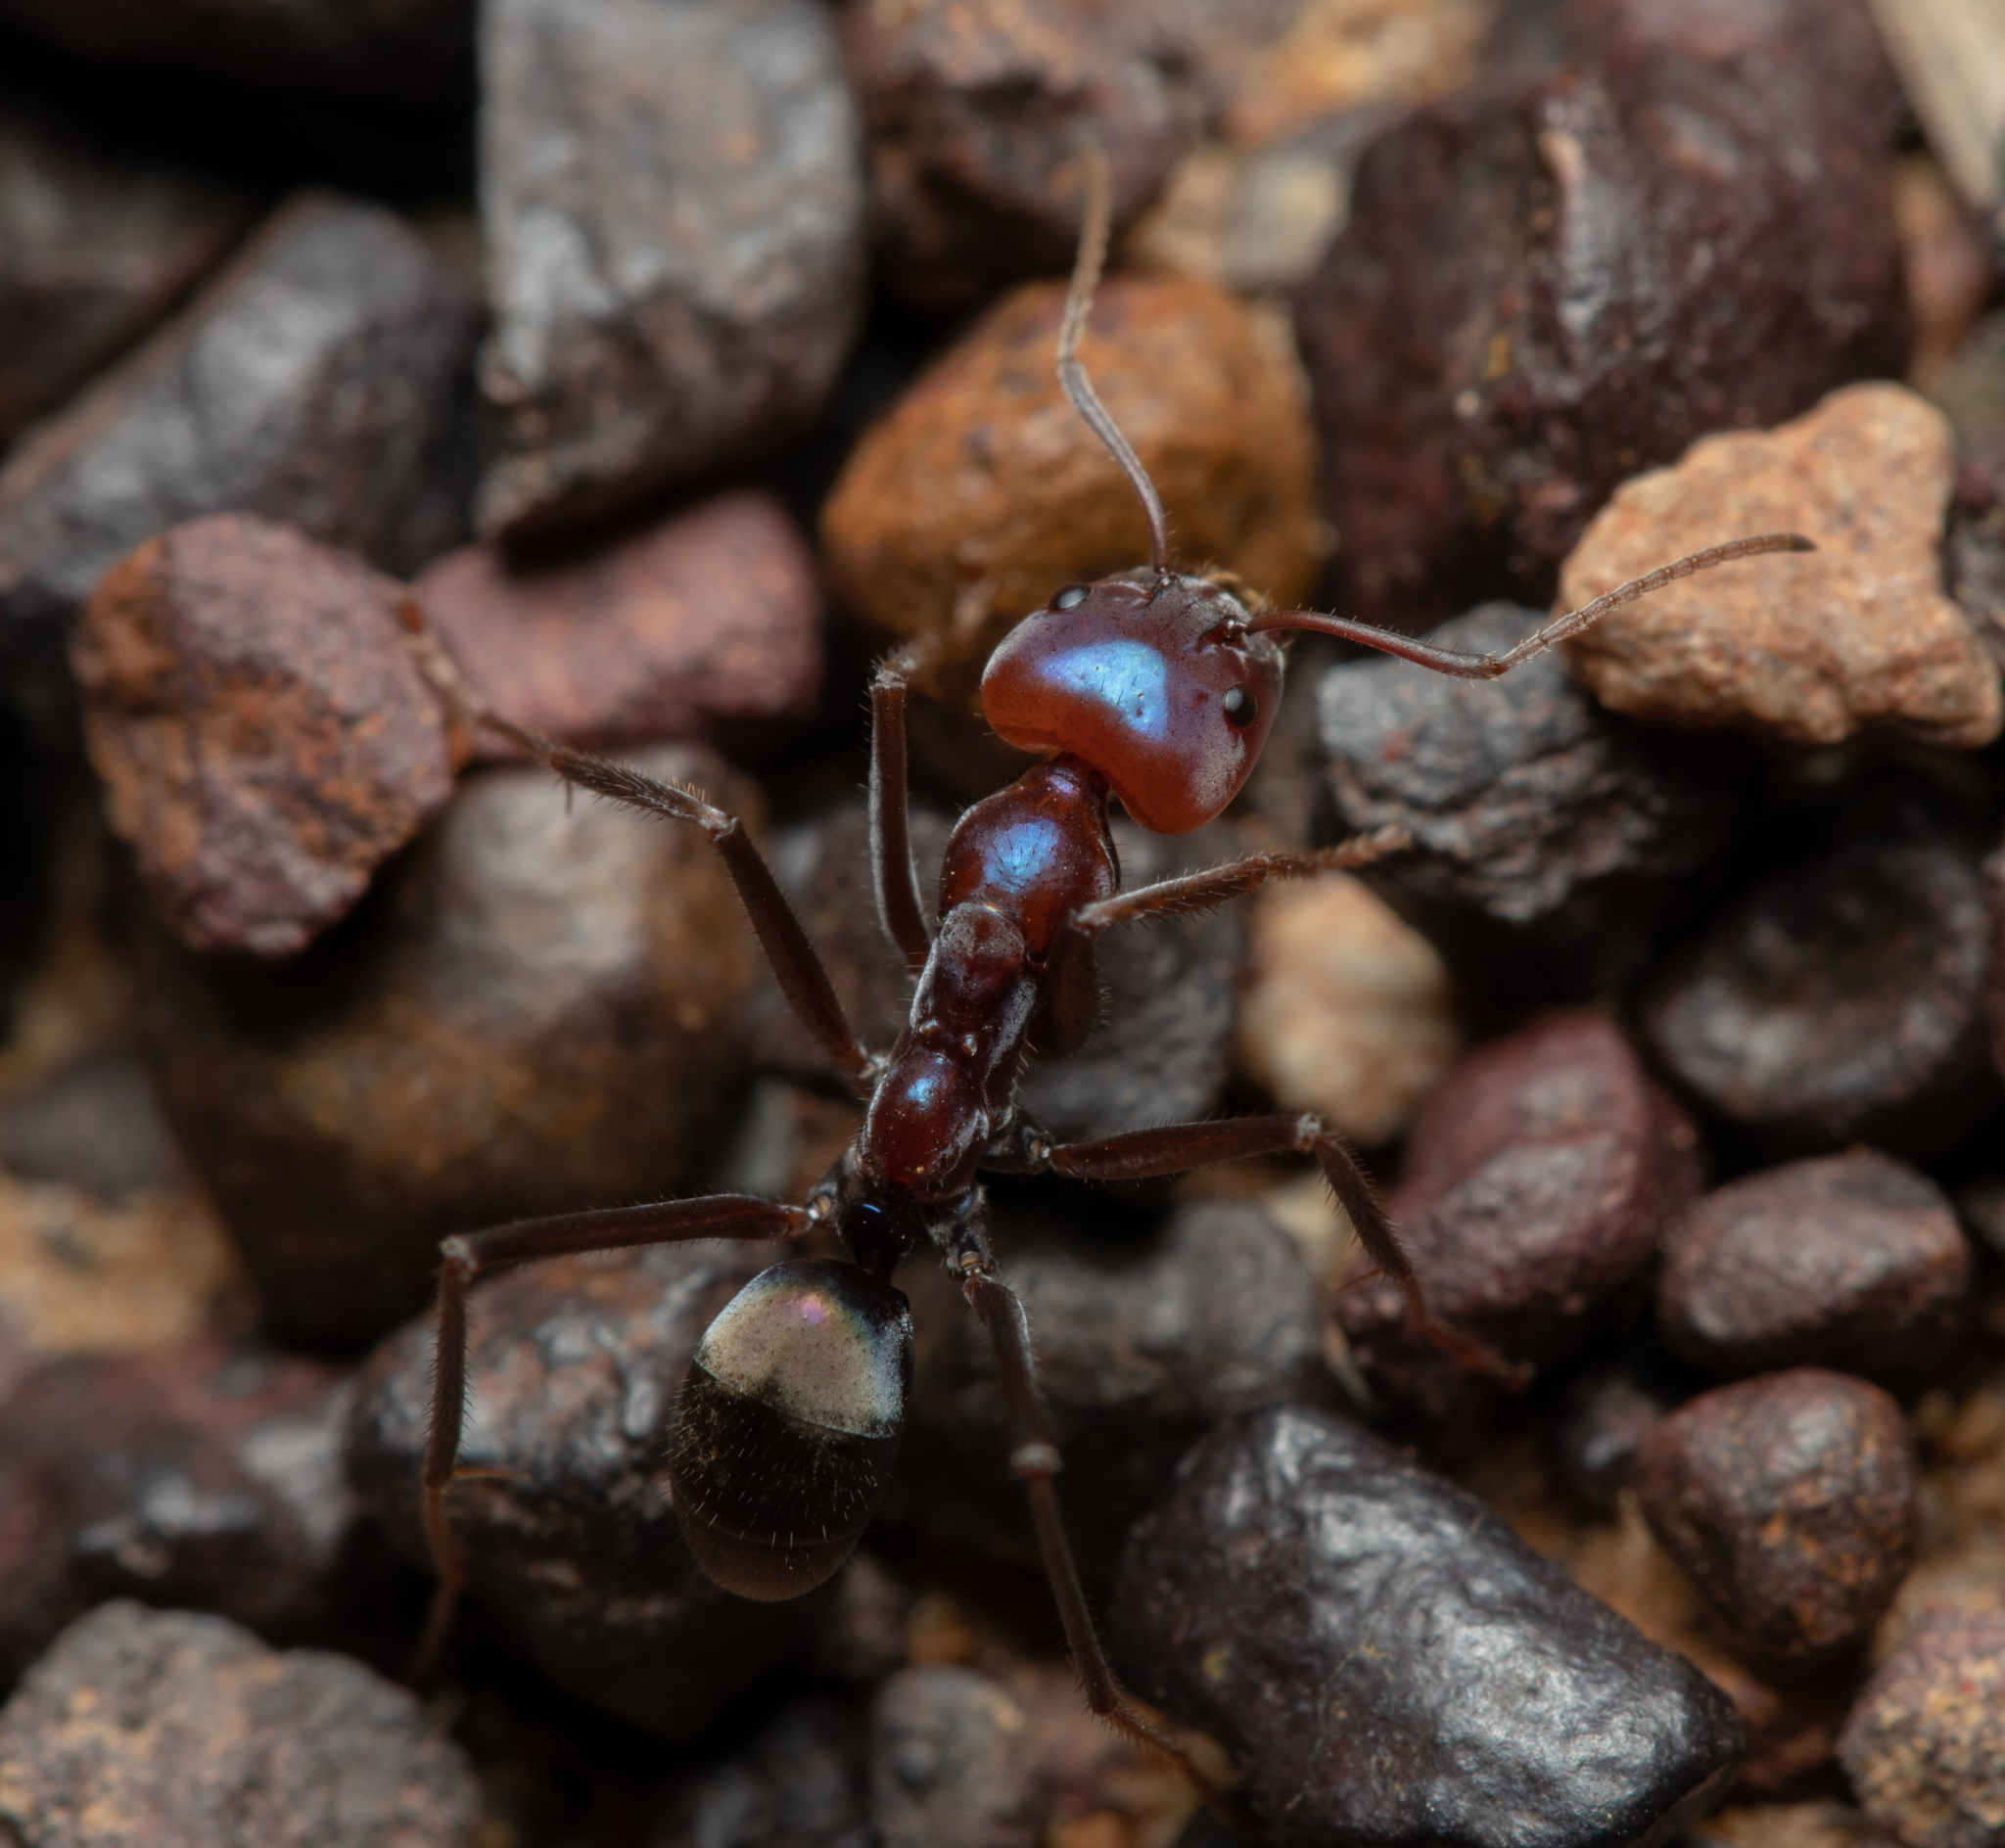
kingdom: Animalia
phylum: Arthropoda
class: Insecta
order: Hymenoptera
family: Formicidae
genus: Iridomyrmex
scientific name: Iridomyrmex purpureus
